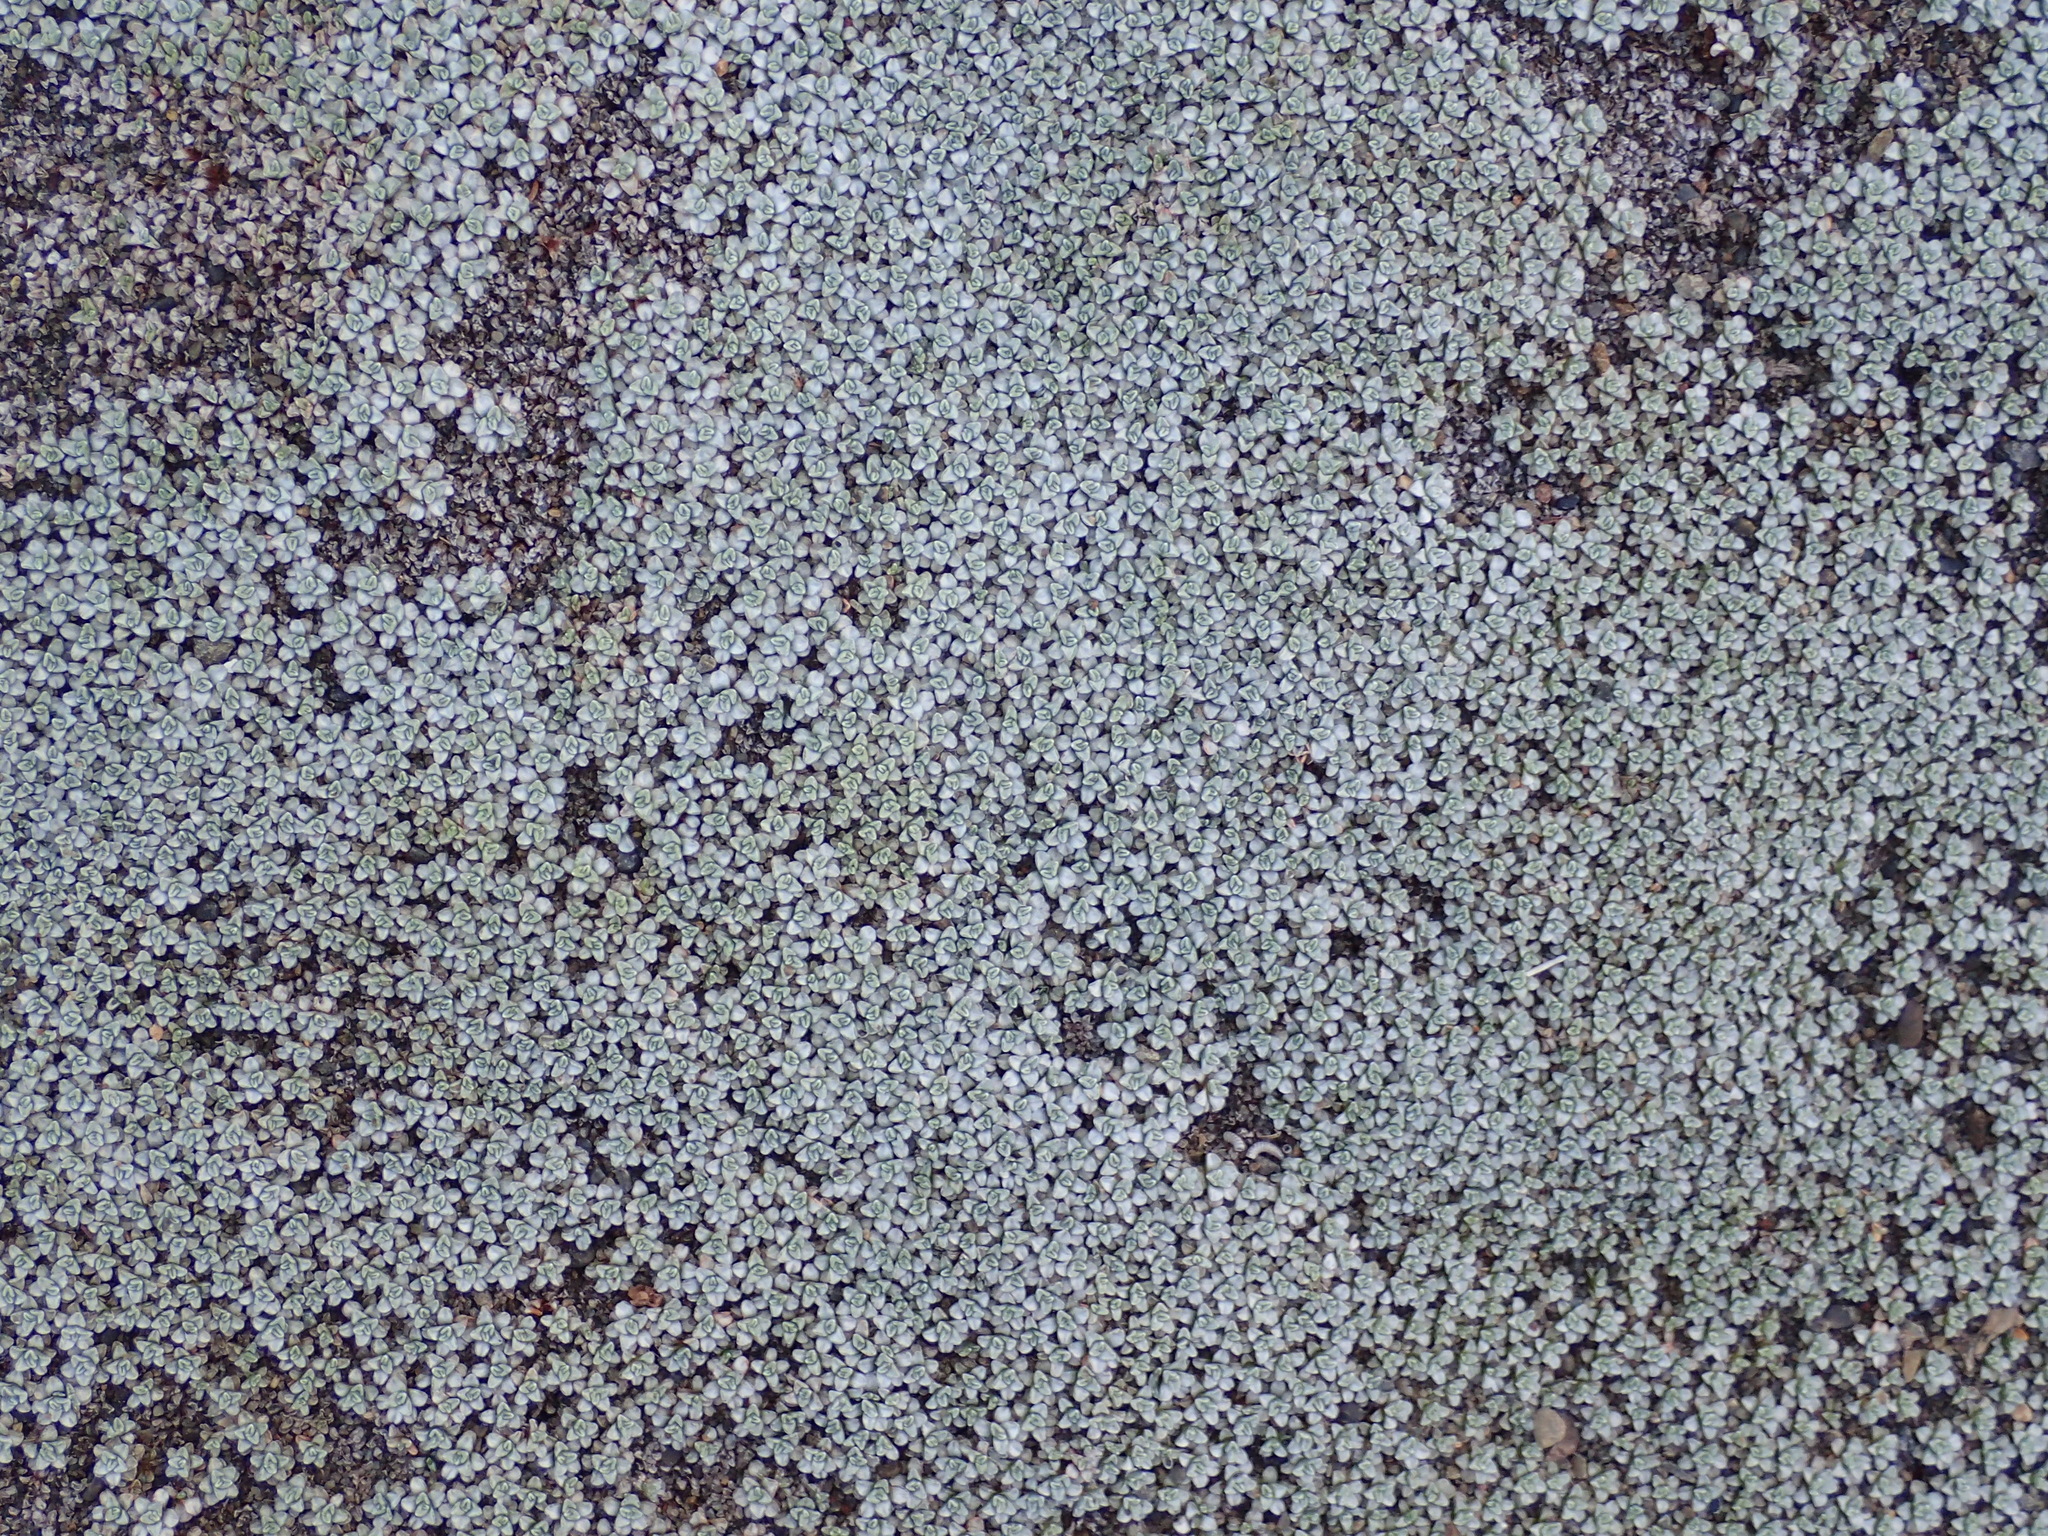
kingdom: Plantae
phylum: Tracheophyta
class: Magnoliopsida
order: Asterales
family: Asteraceae
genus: Raoulia
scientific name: Raoulia hookeri
